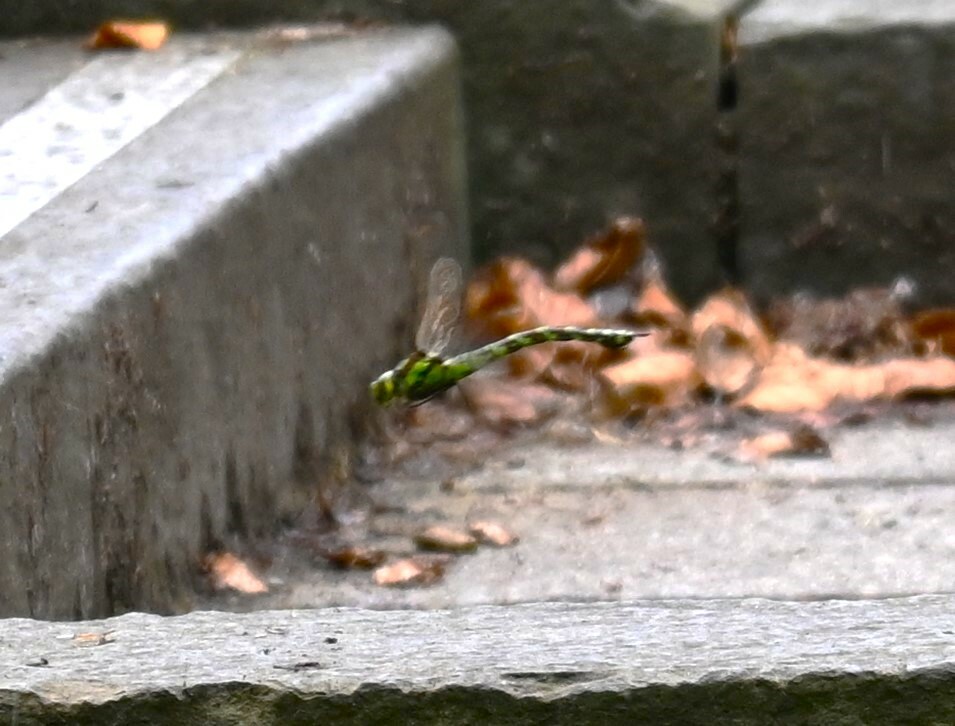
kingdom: Animalia
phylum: Arthropoda
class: Insecta
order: Odonata
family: Aeshnidae
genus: Aeshna
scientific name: Aeshna cyanea
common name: Southern hawker
